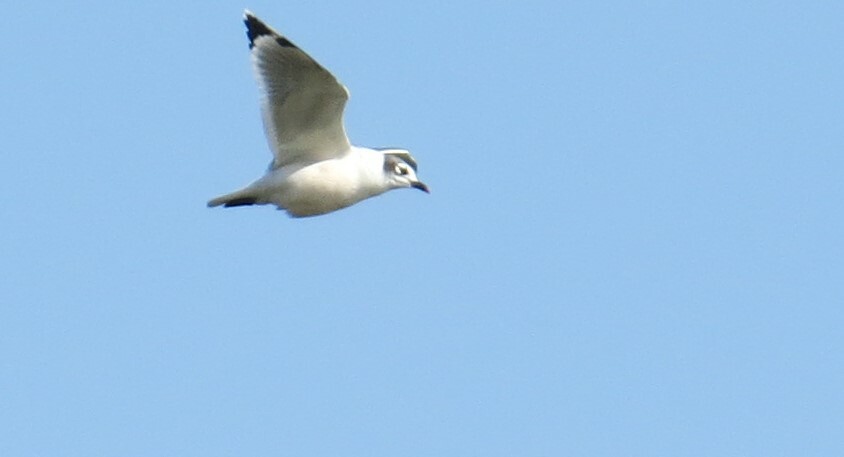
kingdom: Animalia
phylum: Chordata
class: Aves
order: Charadriiformes
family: Laridae
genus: Leucophaeus
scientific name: Leucophaeus pipixcan
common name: Franklin's gull
